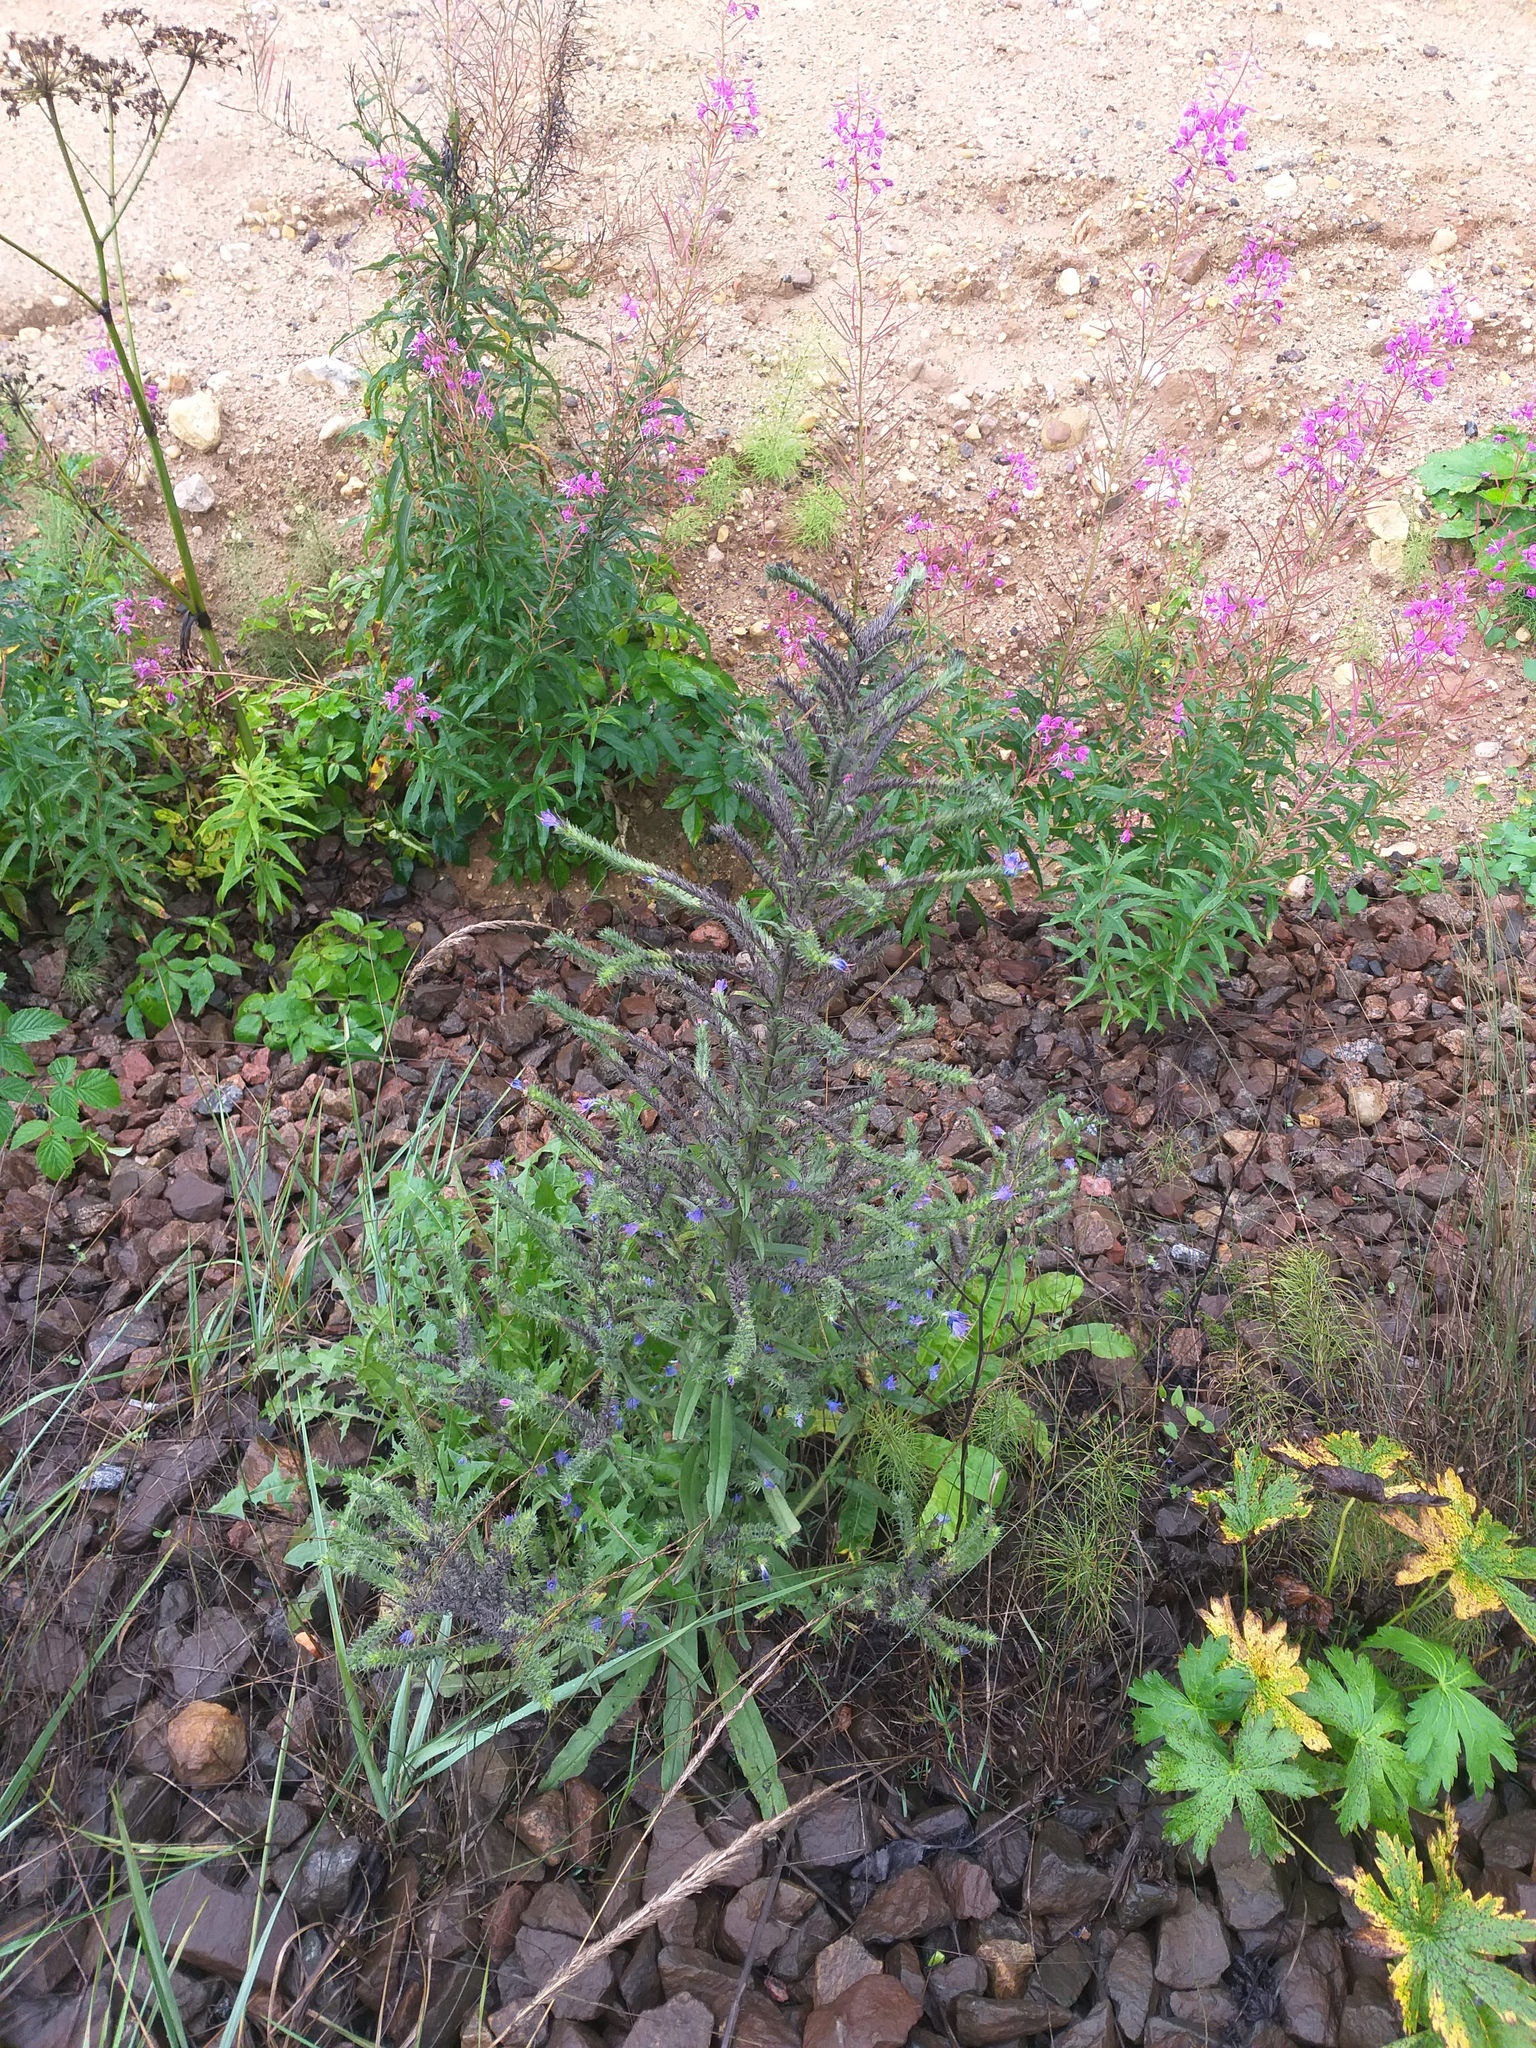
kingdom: Plantae
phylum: Tracheophyta
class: Magnoliopsida
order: Boraginales
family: Boraginaceae
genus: Echium
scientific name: Echium vulgare
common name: Common viper's bugloss
